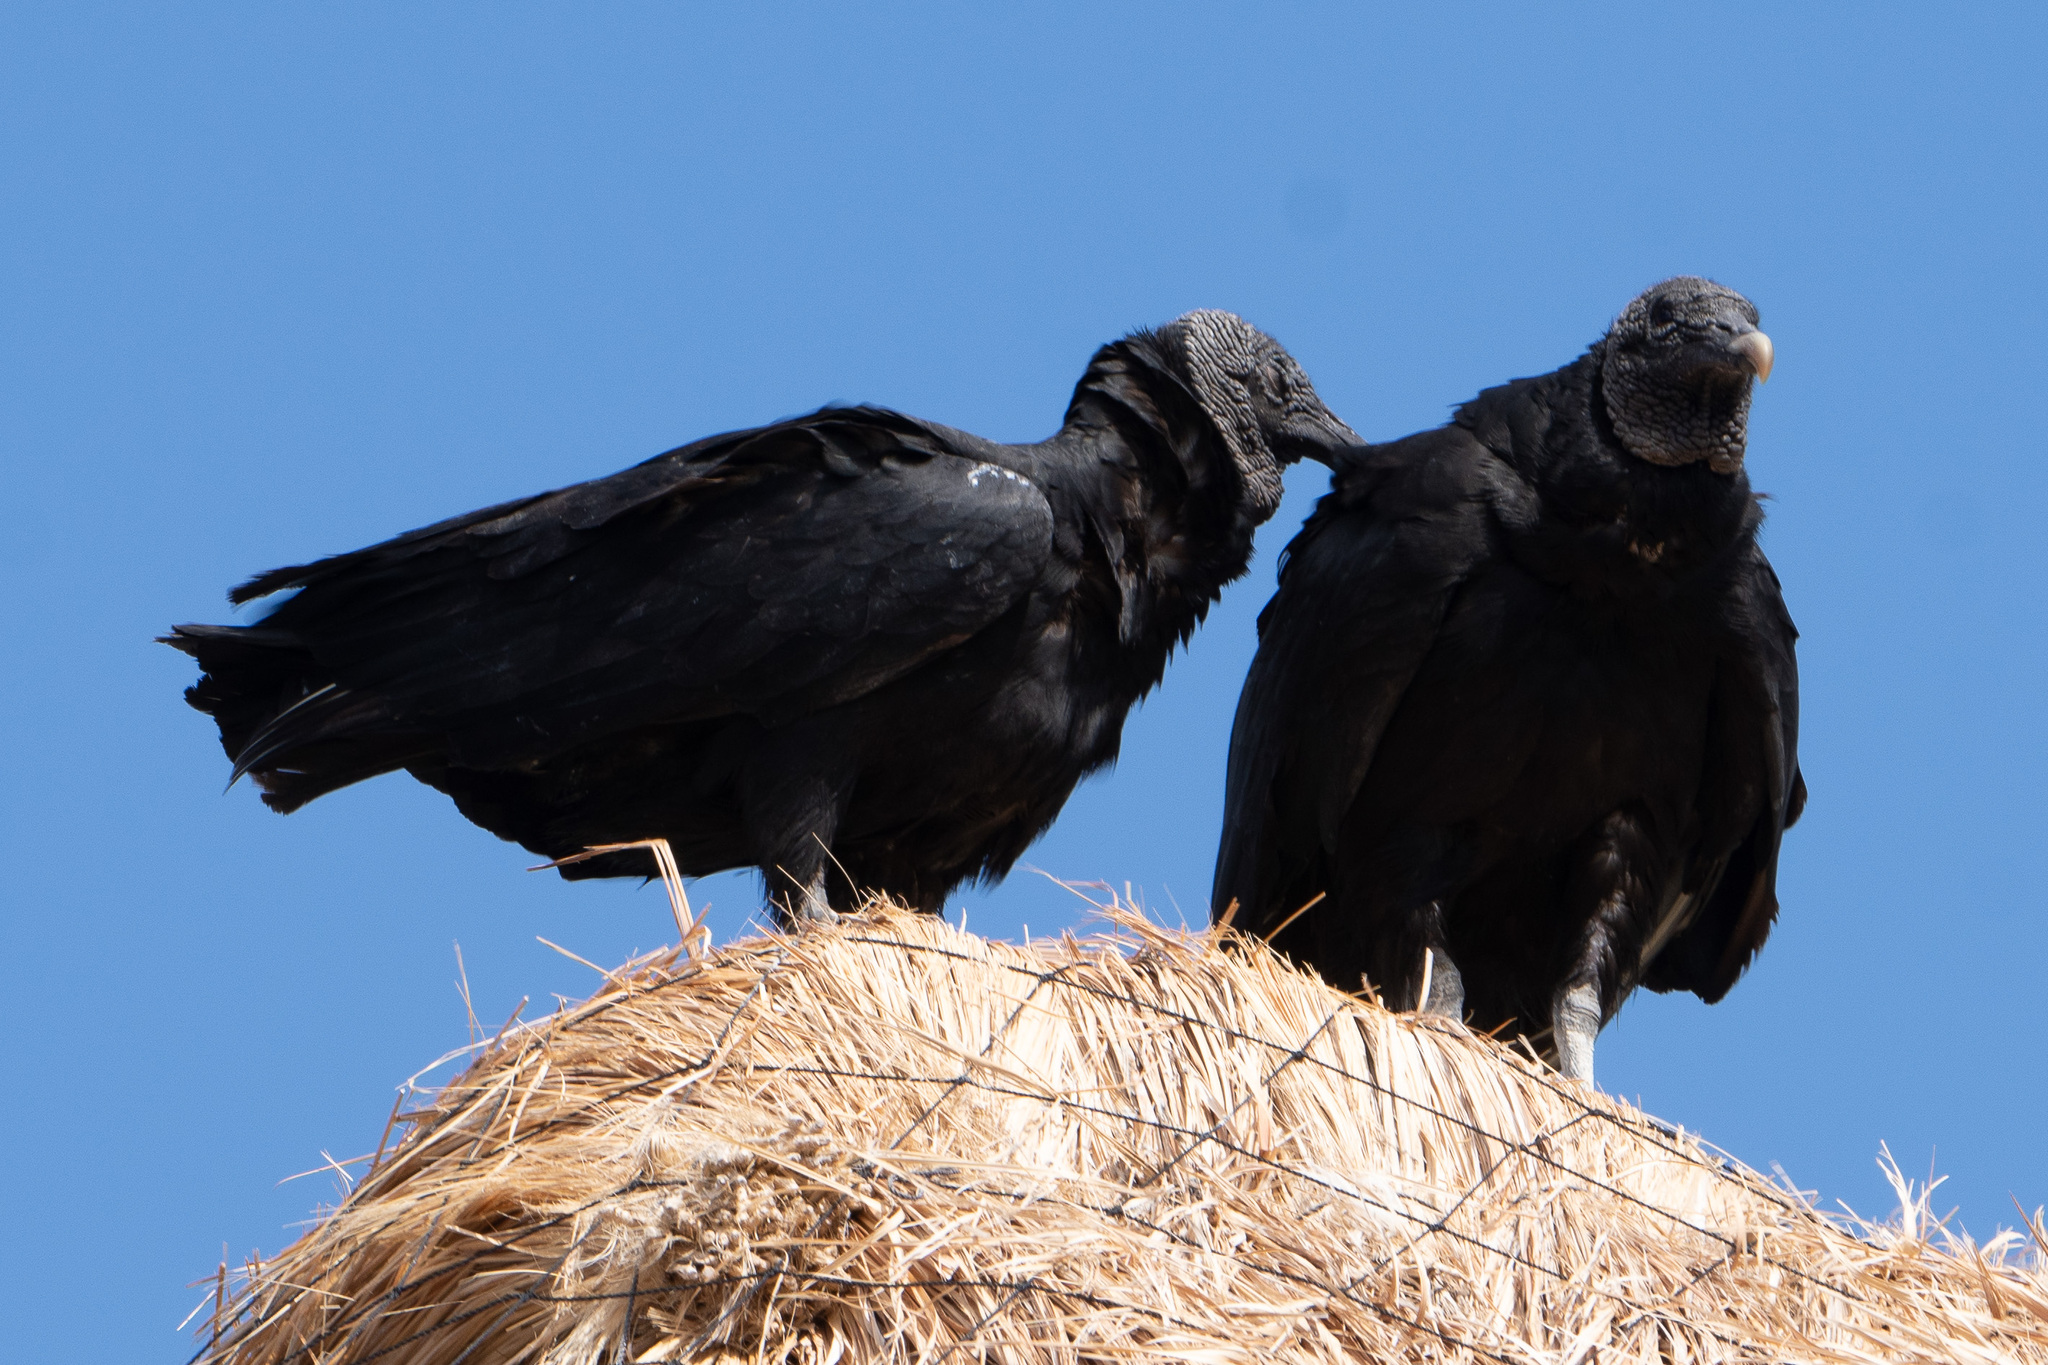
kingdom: Animalia
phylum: Chordata
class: Aves
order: Accipitriformes
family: Cathartidae
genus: Coragyps
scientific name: Coragyps atratus
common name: Black vulture
